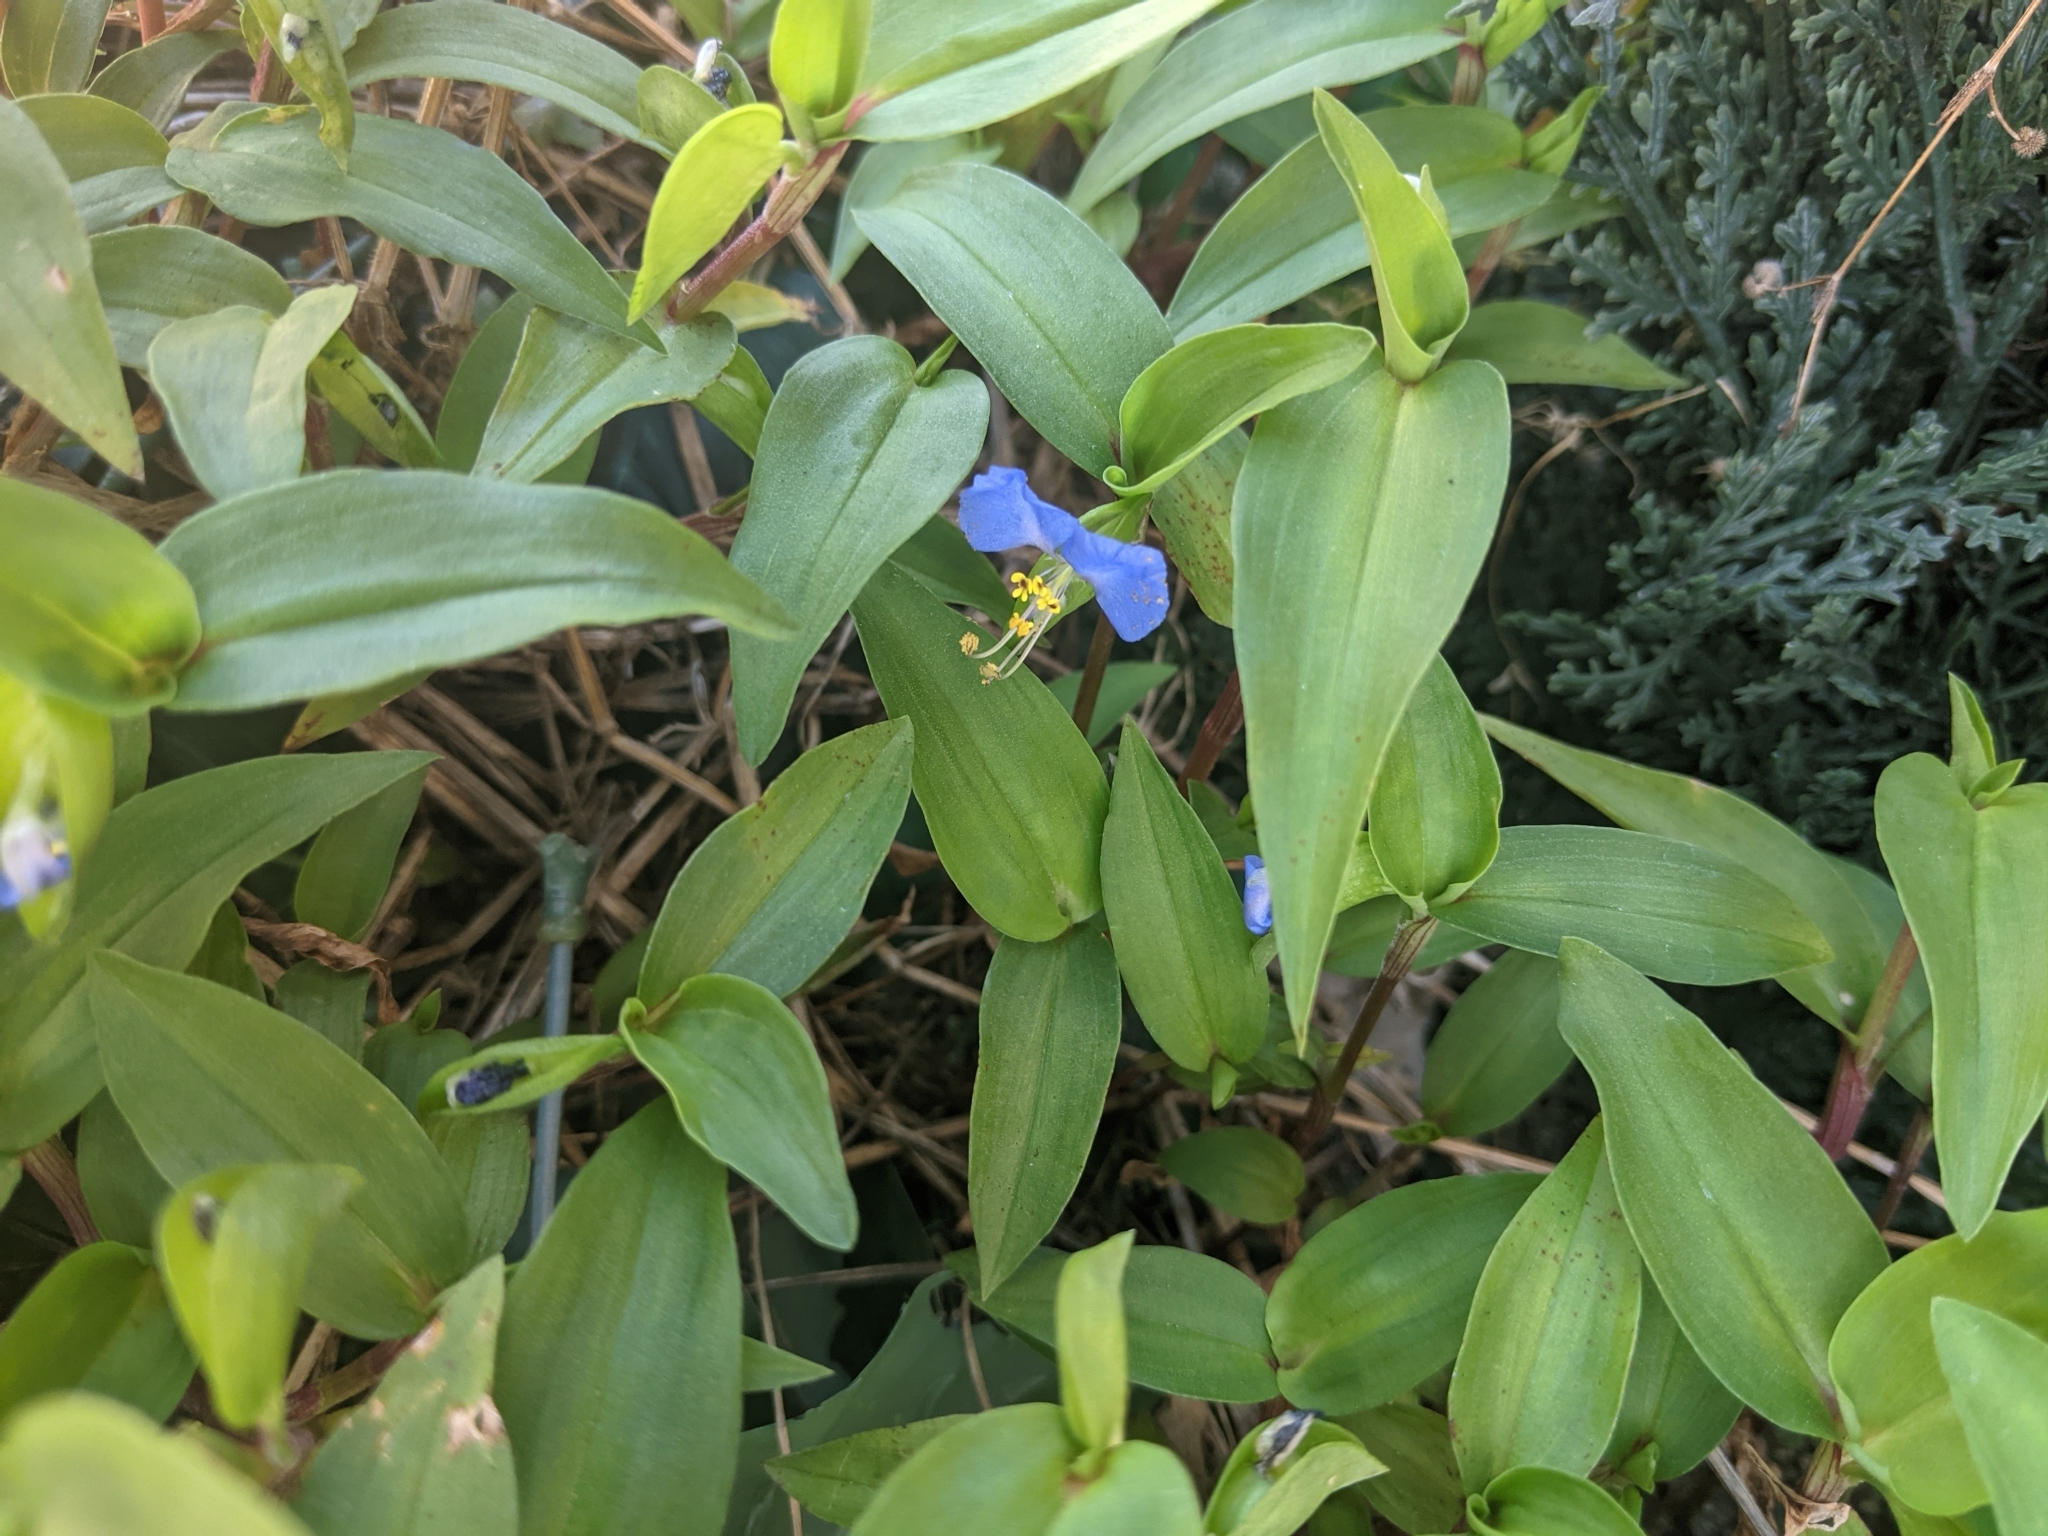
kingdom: Plantae
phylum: Tracheophyta
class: Liliopsida
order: Commelinales
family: Commelinaceae
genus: Commelina
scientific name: Commelina communis
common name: Asiatic dayflower
